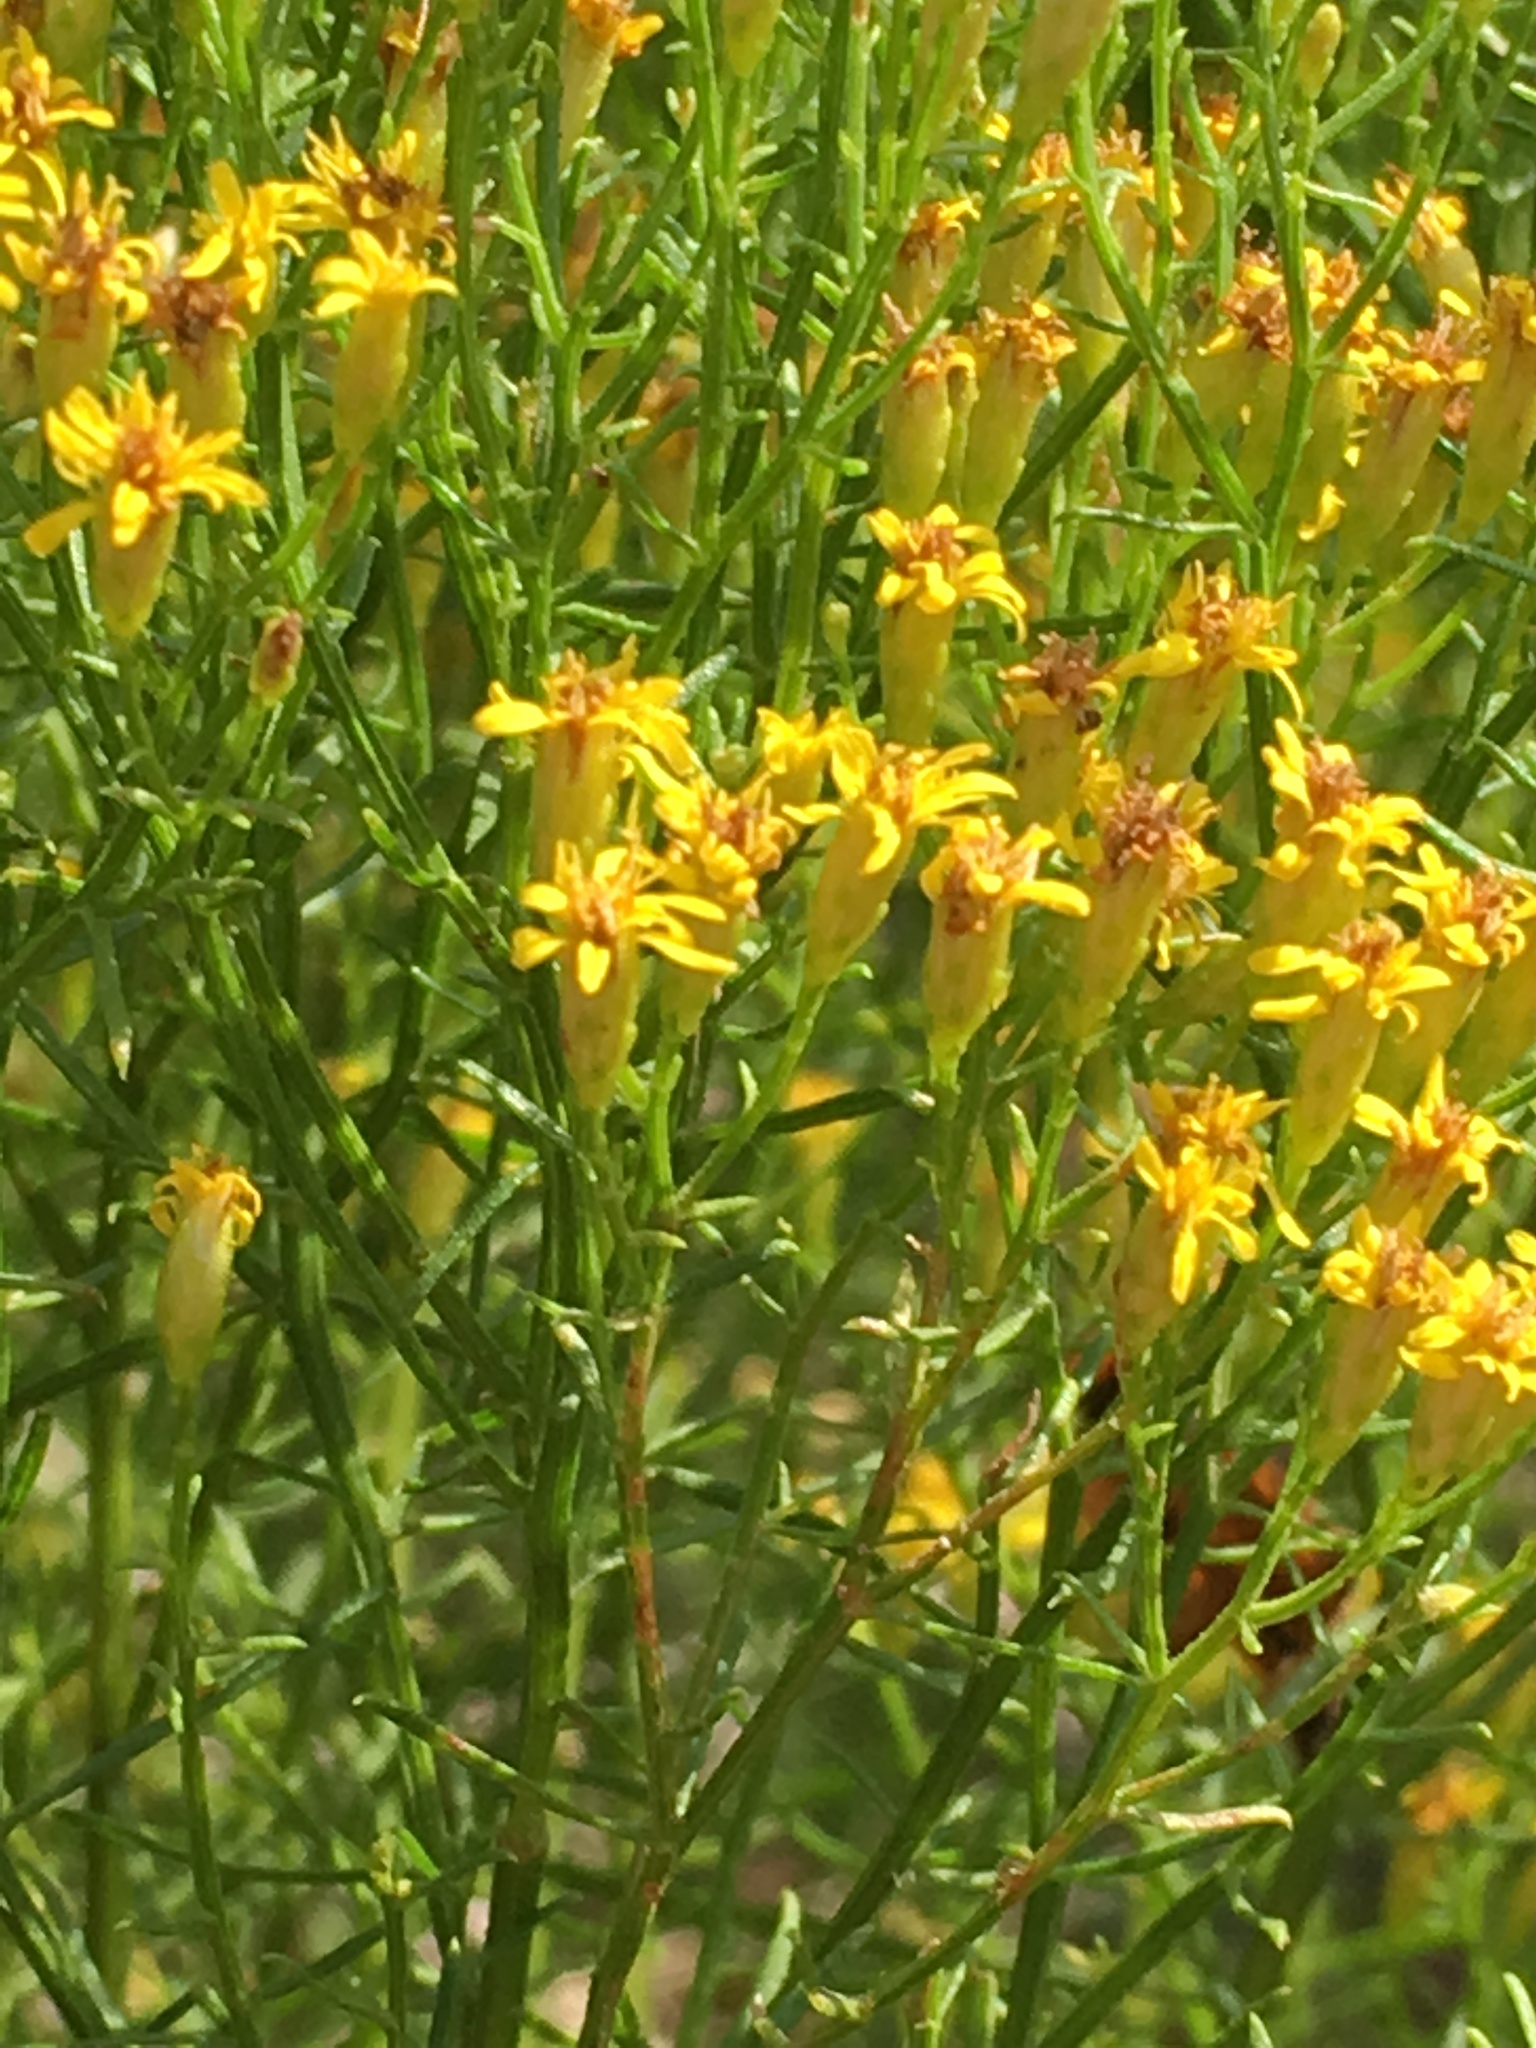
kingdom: Plantae
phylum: Tracheophyta
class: Magnoliopsida
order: Asterales
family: Asteraceae
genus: Euthamia
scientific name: Euthamia caroliniana
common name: Coastal plain goldentop
